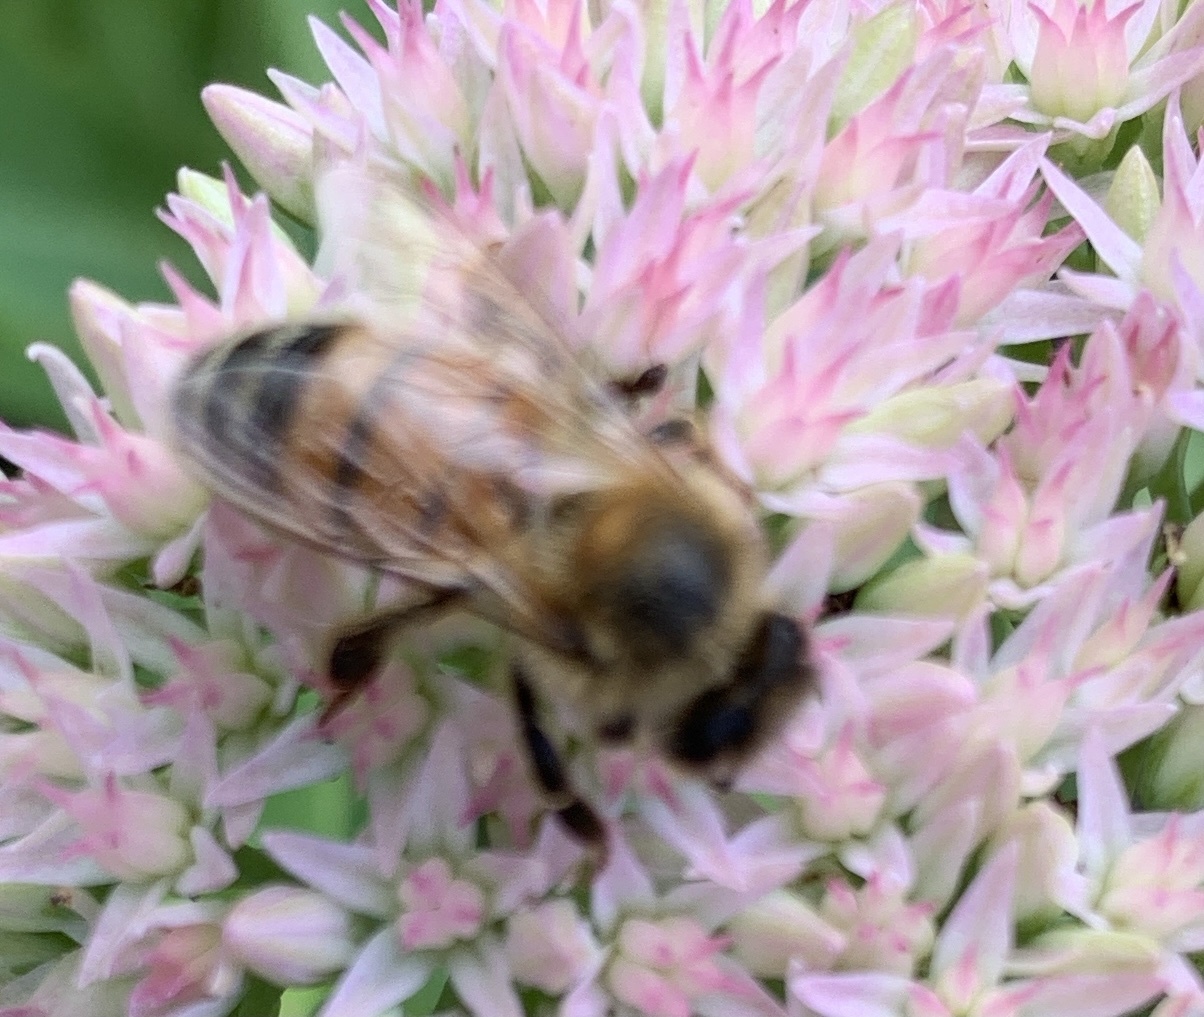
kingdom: Animalia
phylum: Arthropoda
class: Insecta
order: Hymenoptera
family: Apidae
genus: Apis
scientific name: Apis mellifera
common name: Honey bee
